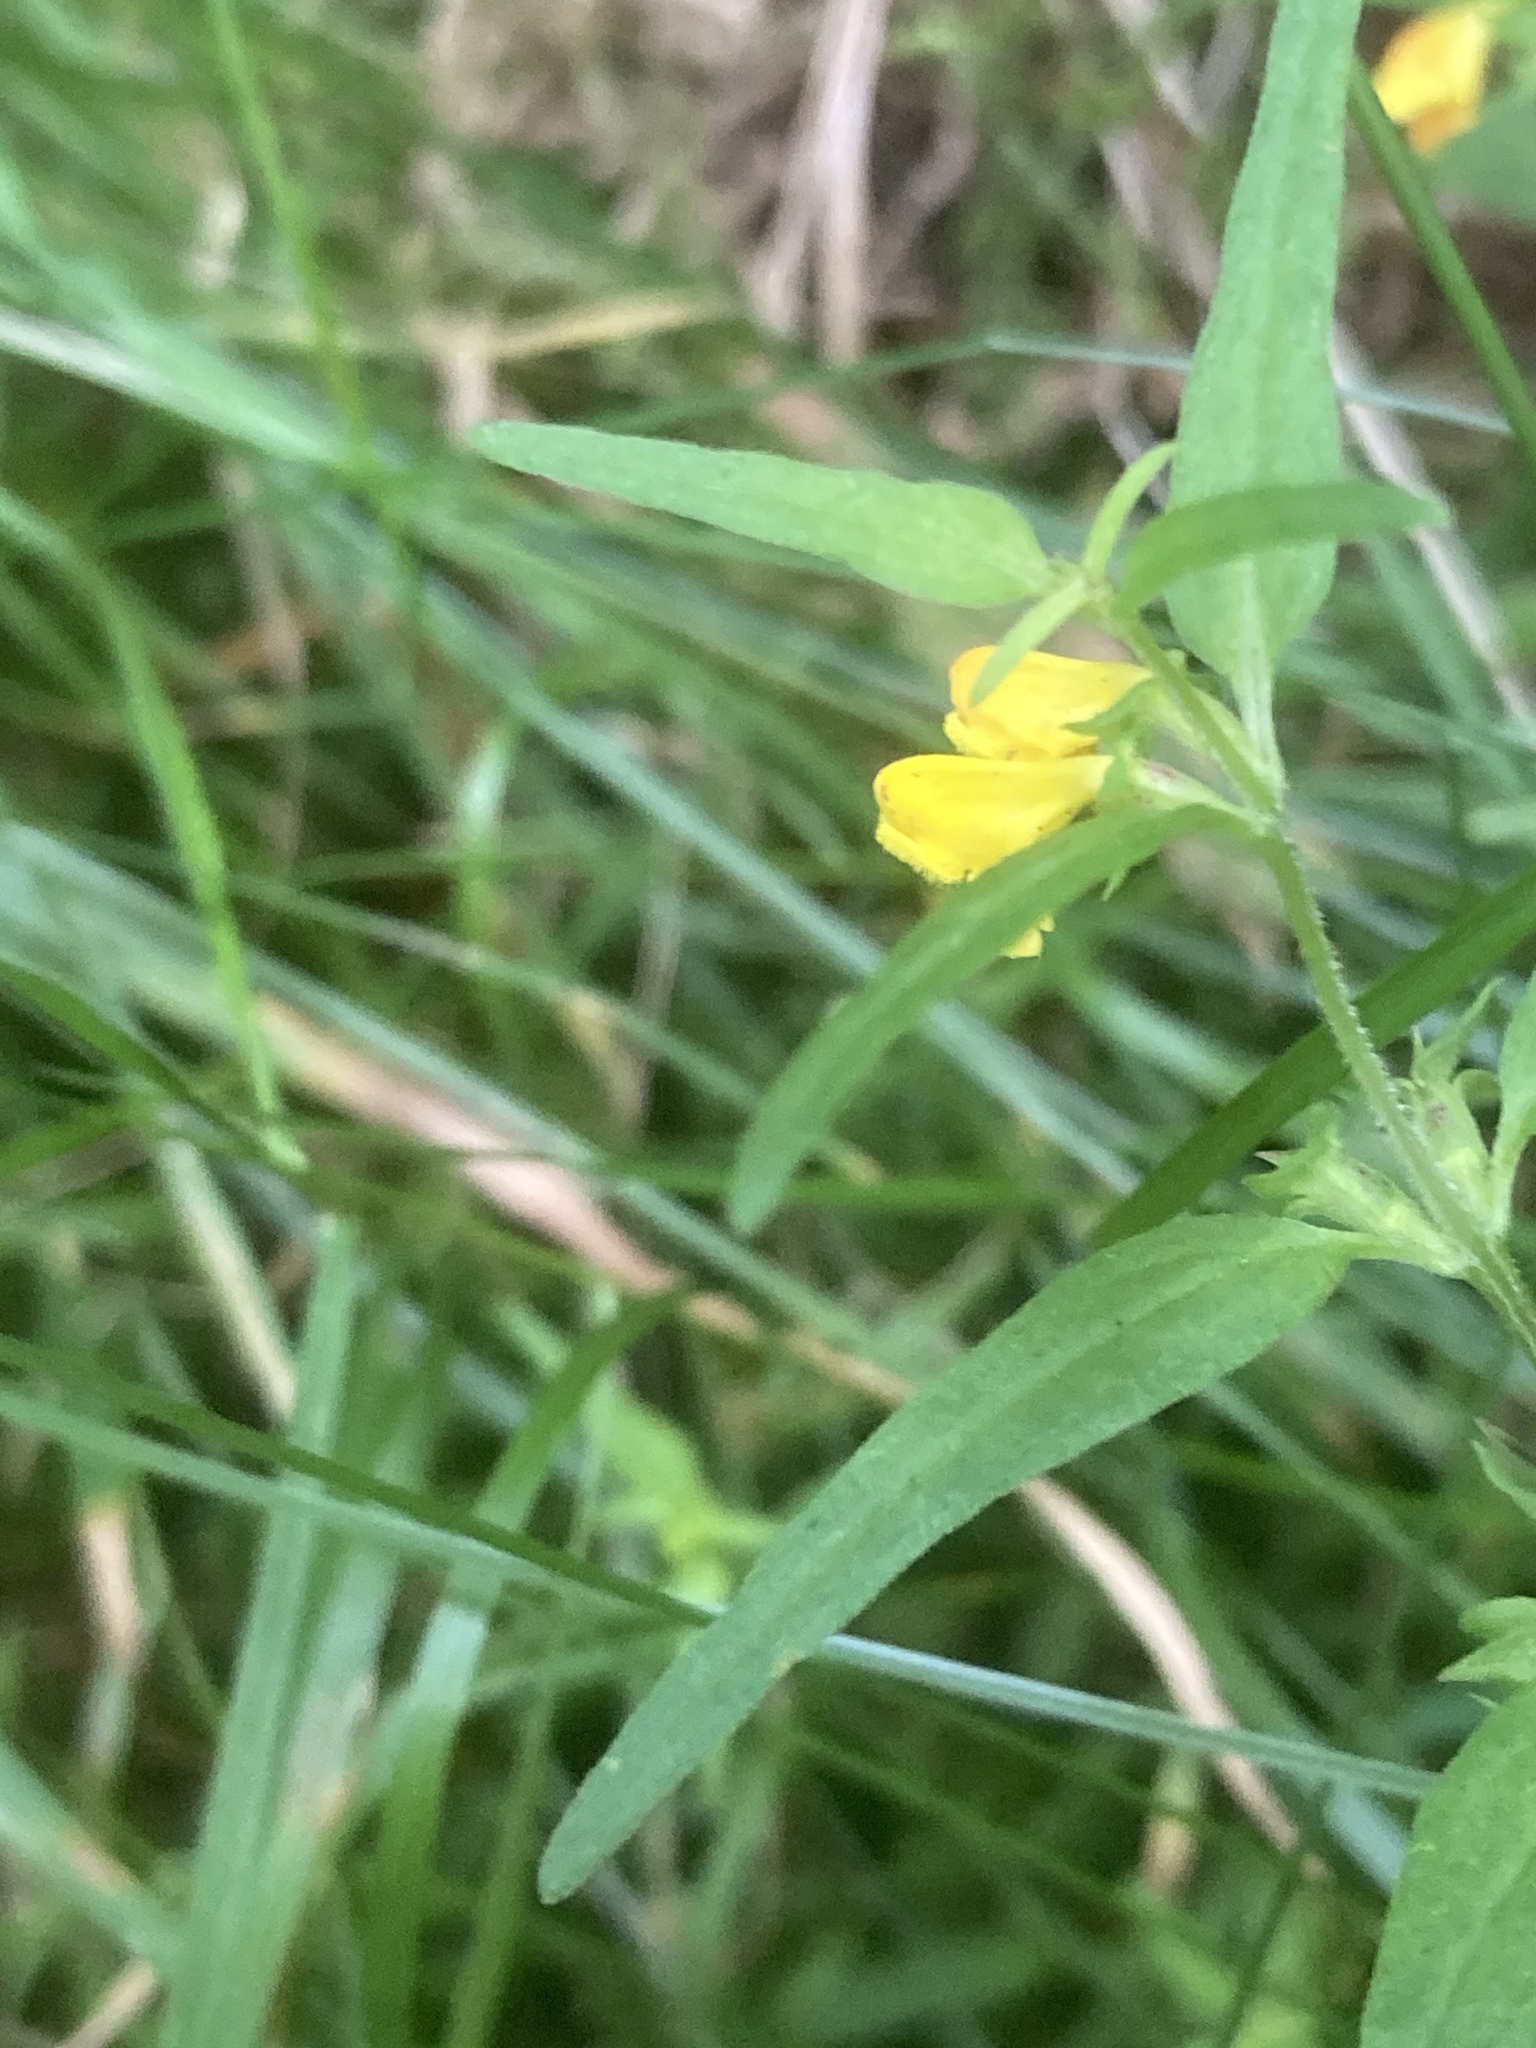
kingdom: Plantae
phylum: Tracheophyta
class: Magnoliopsida
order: Lamiales
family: Orobanchaceae
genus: Melampyrum
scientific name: Melampyrum sylvaticum
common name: Small cow-wheat
